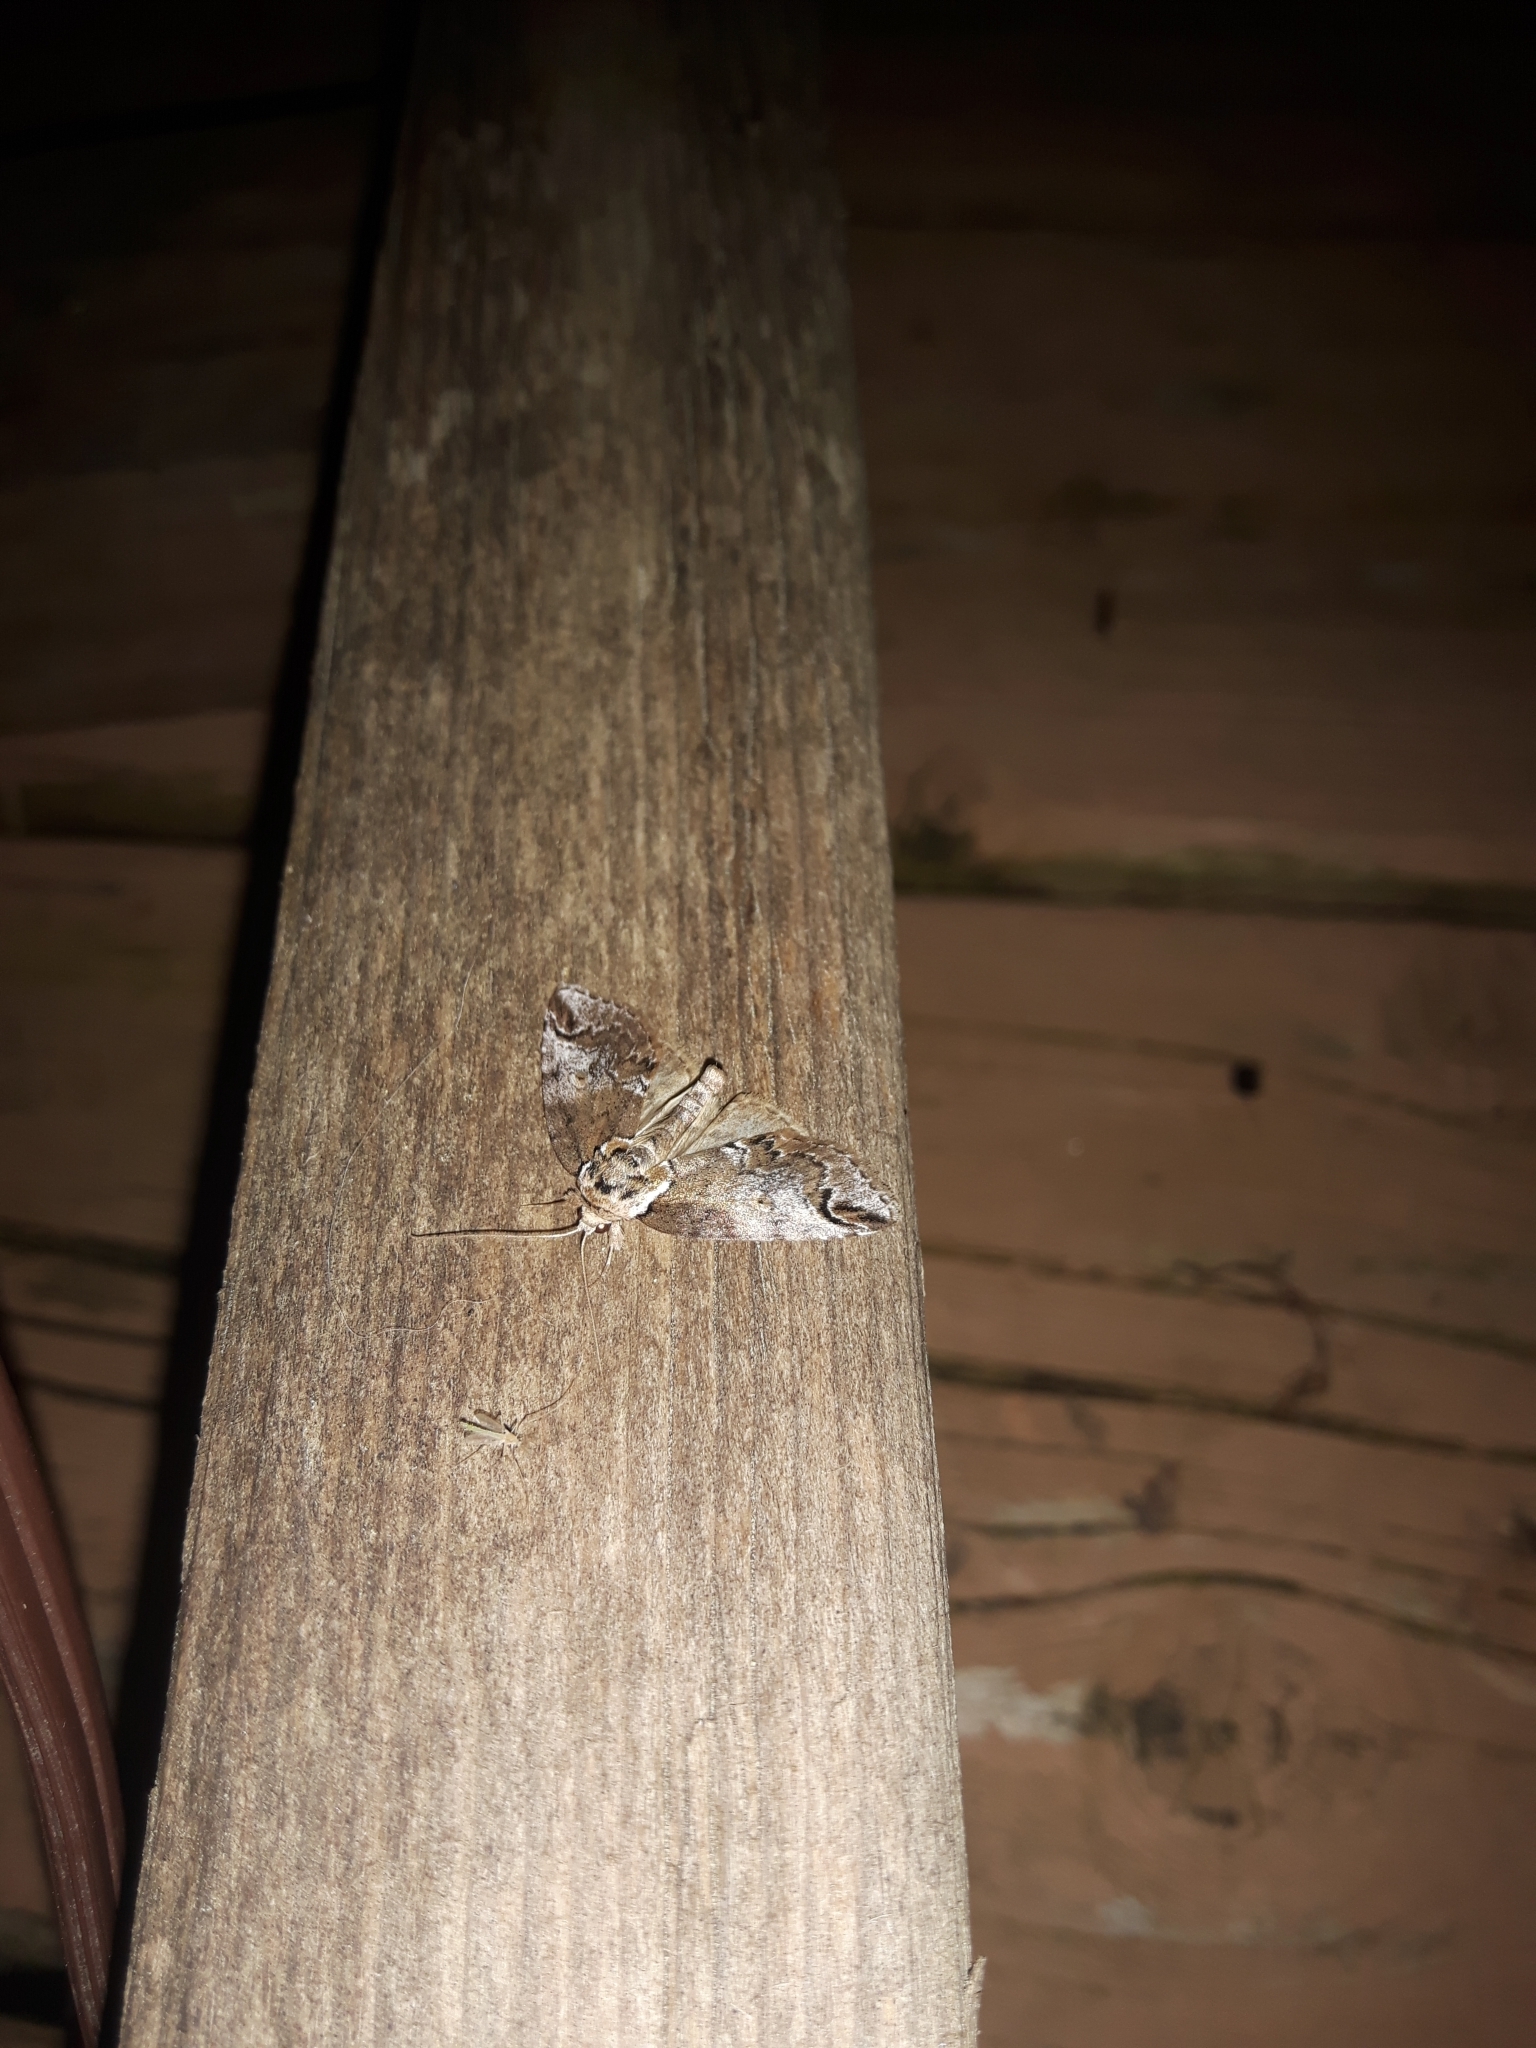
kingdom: Animalia
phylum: Arthropoda
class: Insecta
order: Lepidoptera
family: Nolidae
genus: Baileya
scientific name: Baileya ophthalmica
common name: Eyed baileya moth
